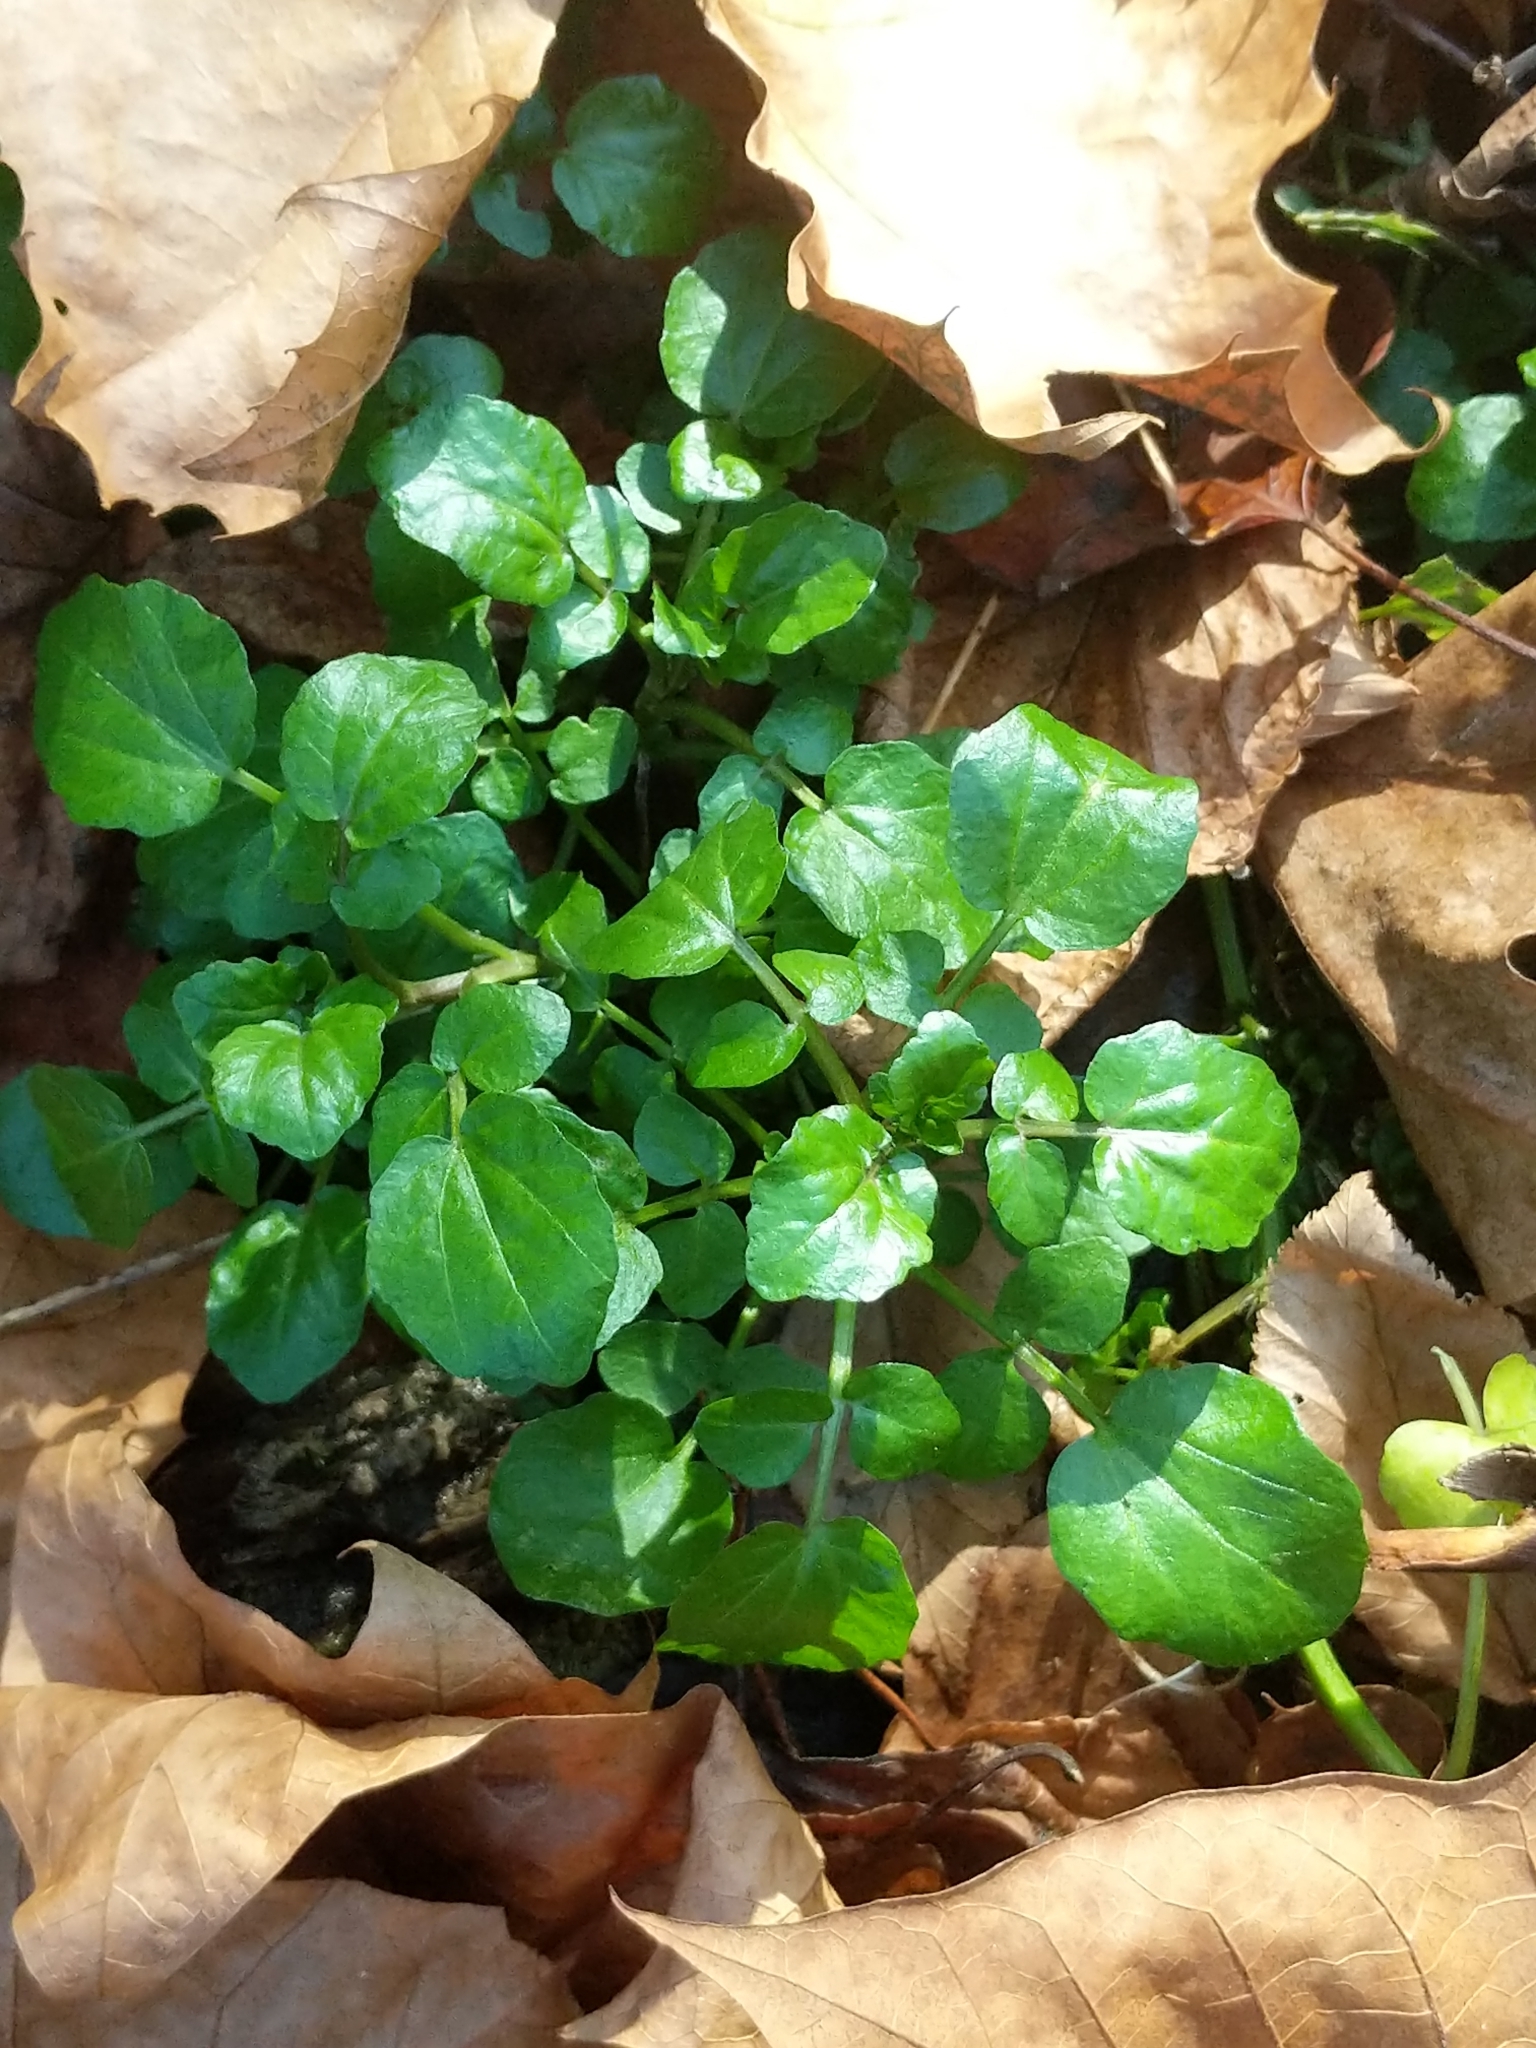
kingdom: Plantae
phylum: Tracheophyta
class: Magnoliopsida
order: Brassicales
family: Brassicaceae
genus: Nasturtium
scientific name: Nasturtium officinale
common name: Watercress
